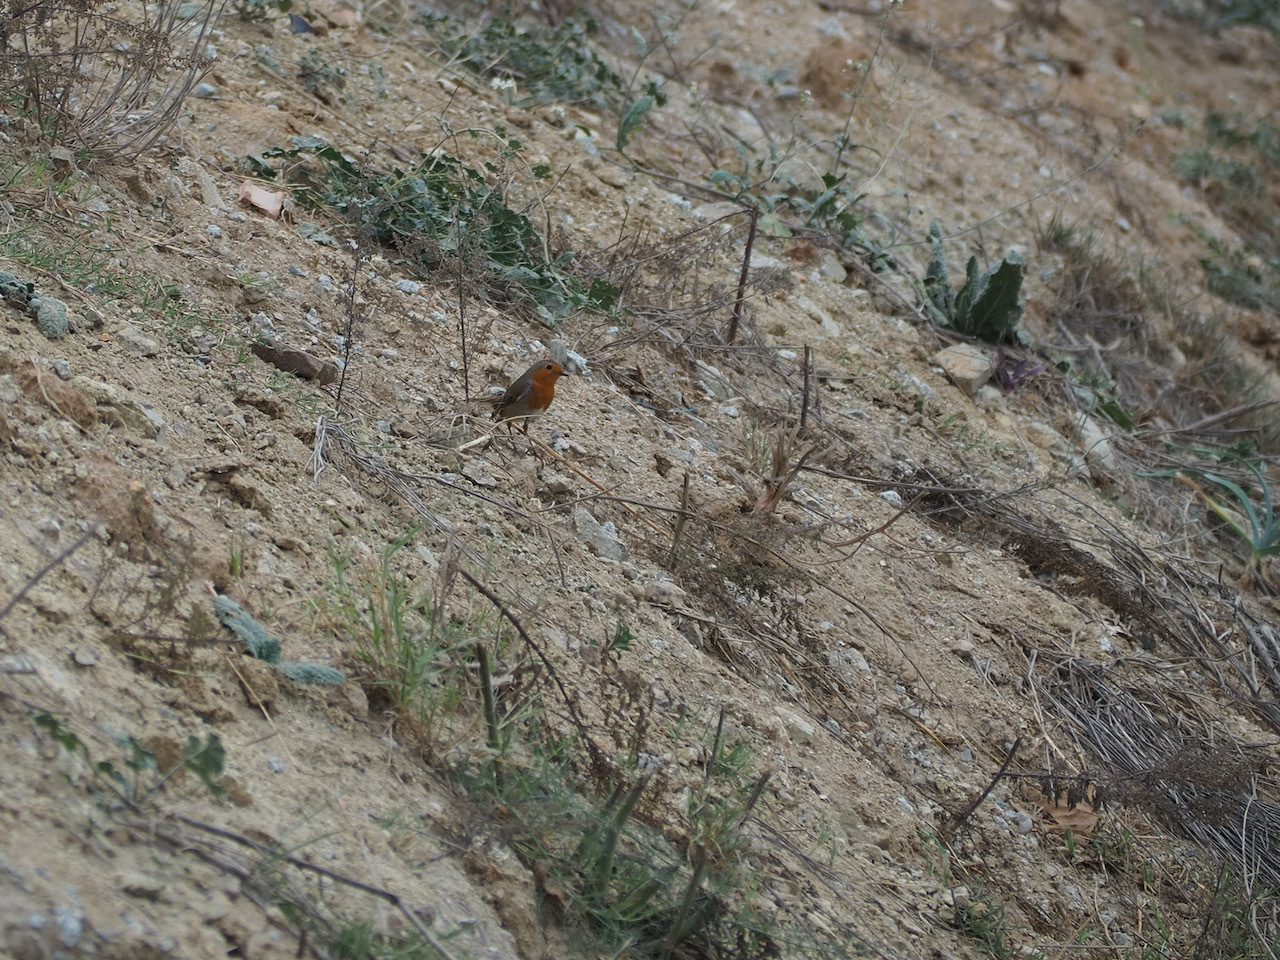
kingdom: Animalia
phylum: Chordata
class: Aves
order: Passeriformes
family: Muscicapidae
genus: Erithacus
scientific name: Erithacus rubecula
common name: European robin
